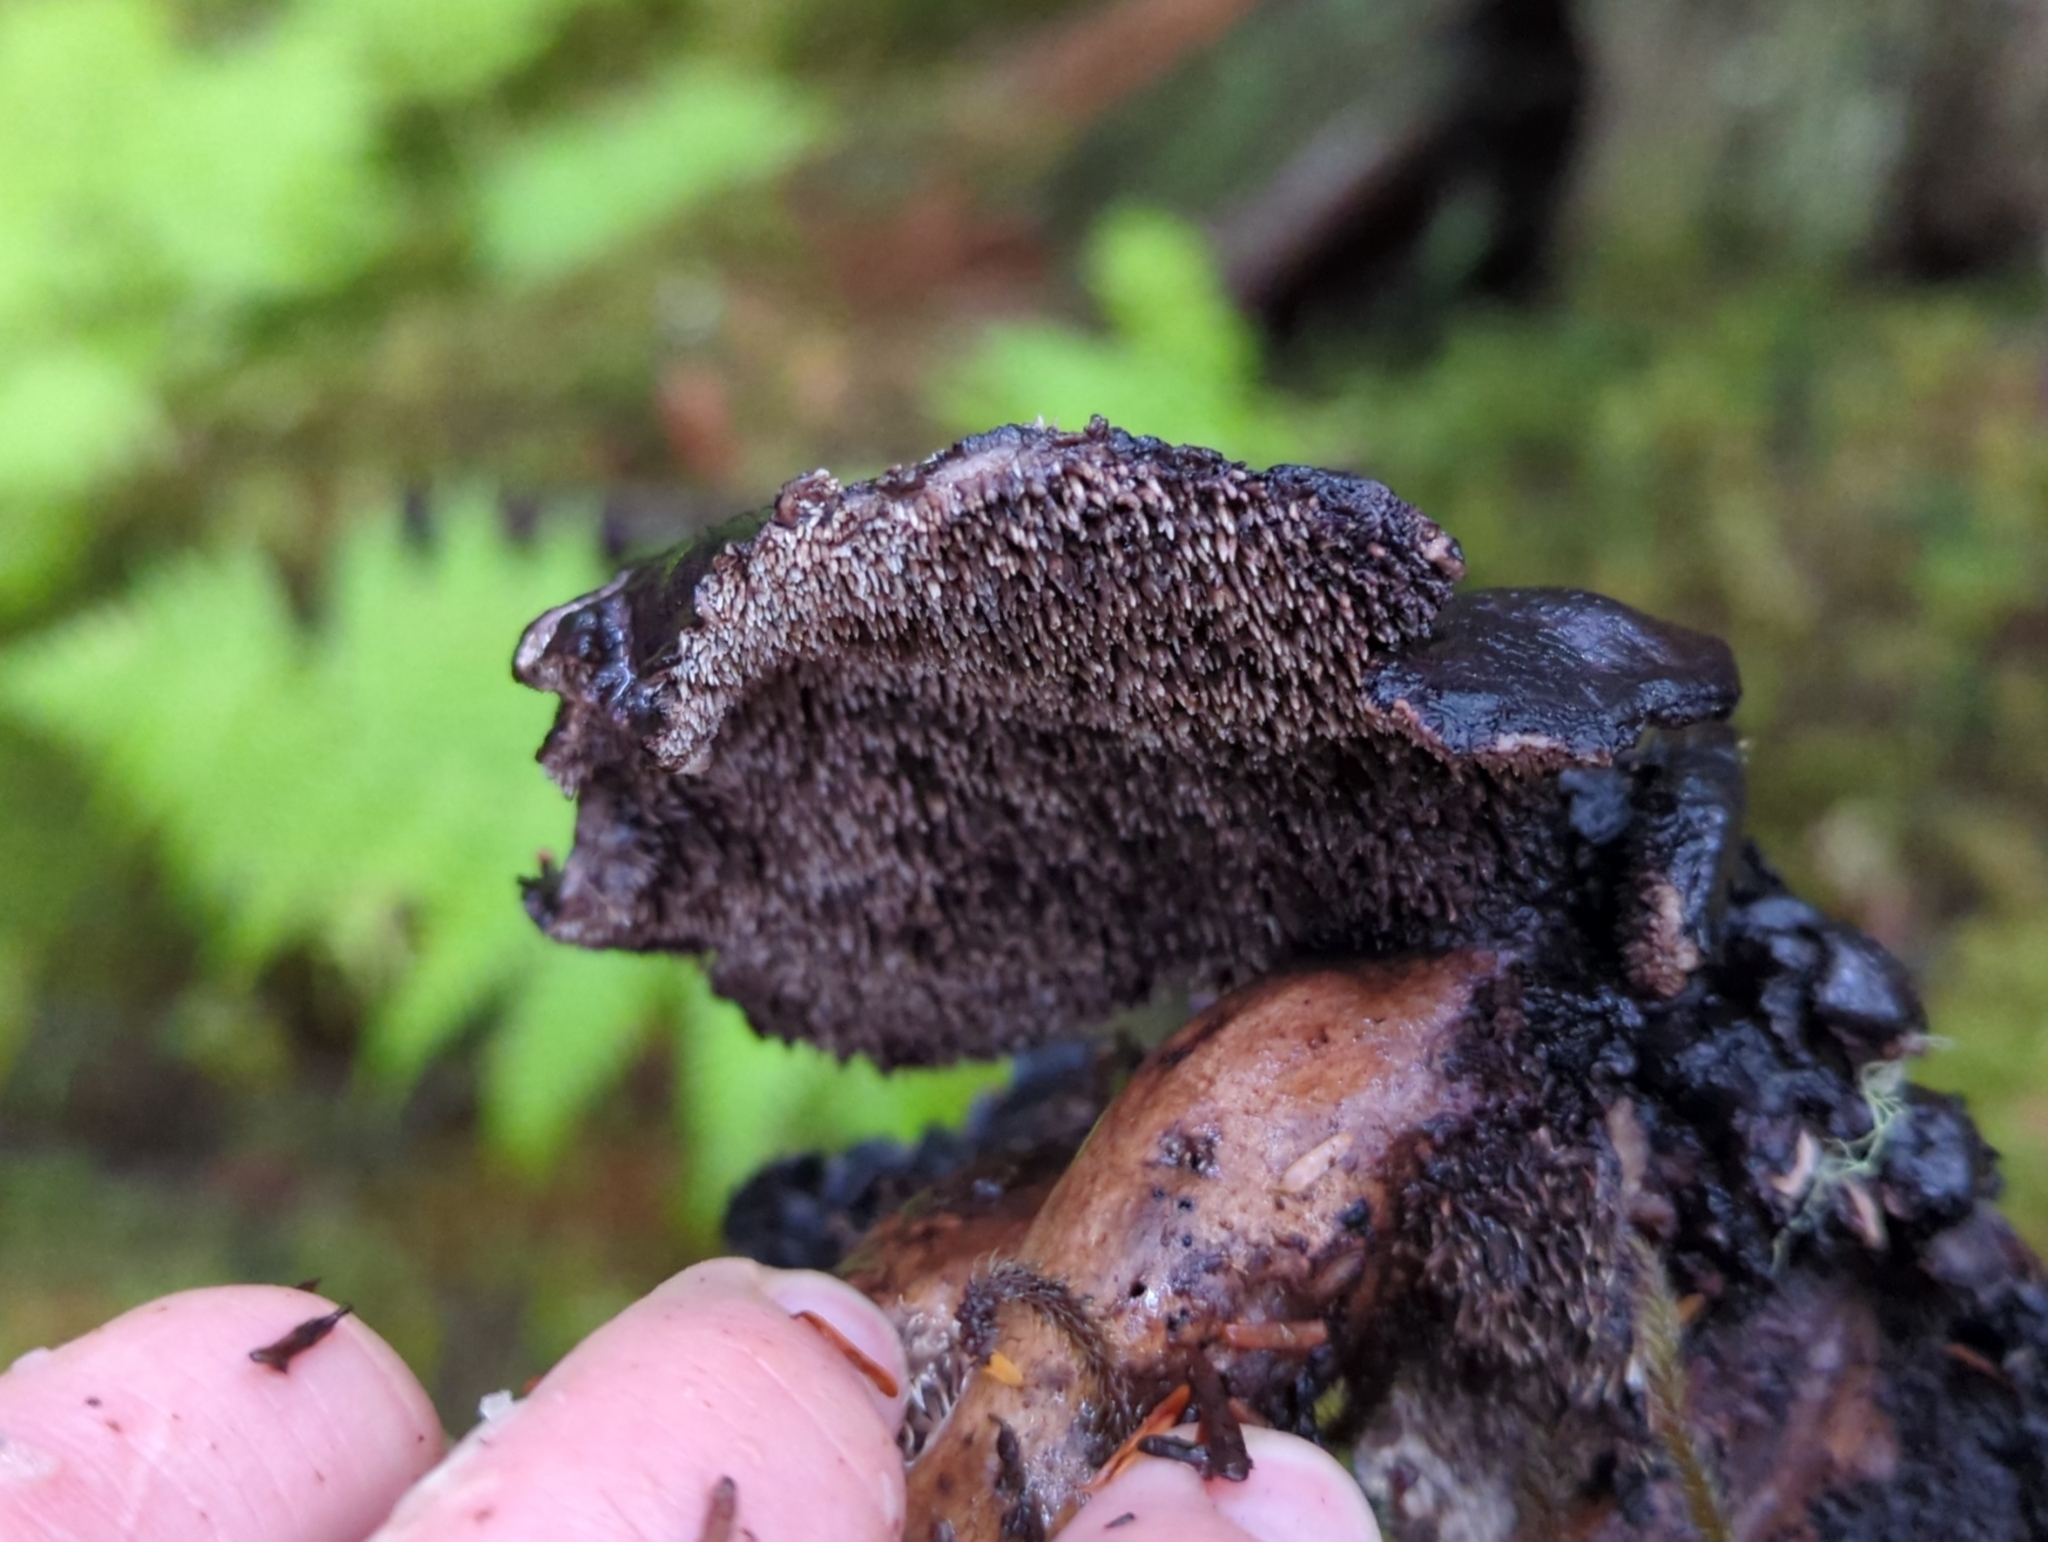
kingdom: Fungi
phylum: Basidiomycota
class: Agaricomycetes
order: Thelephorales
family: Bankeraceae
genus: Sarcodon
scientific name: Sarcodon stereosarcinon
